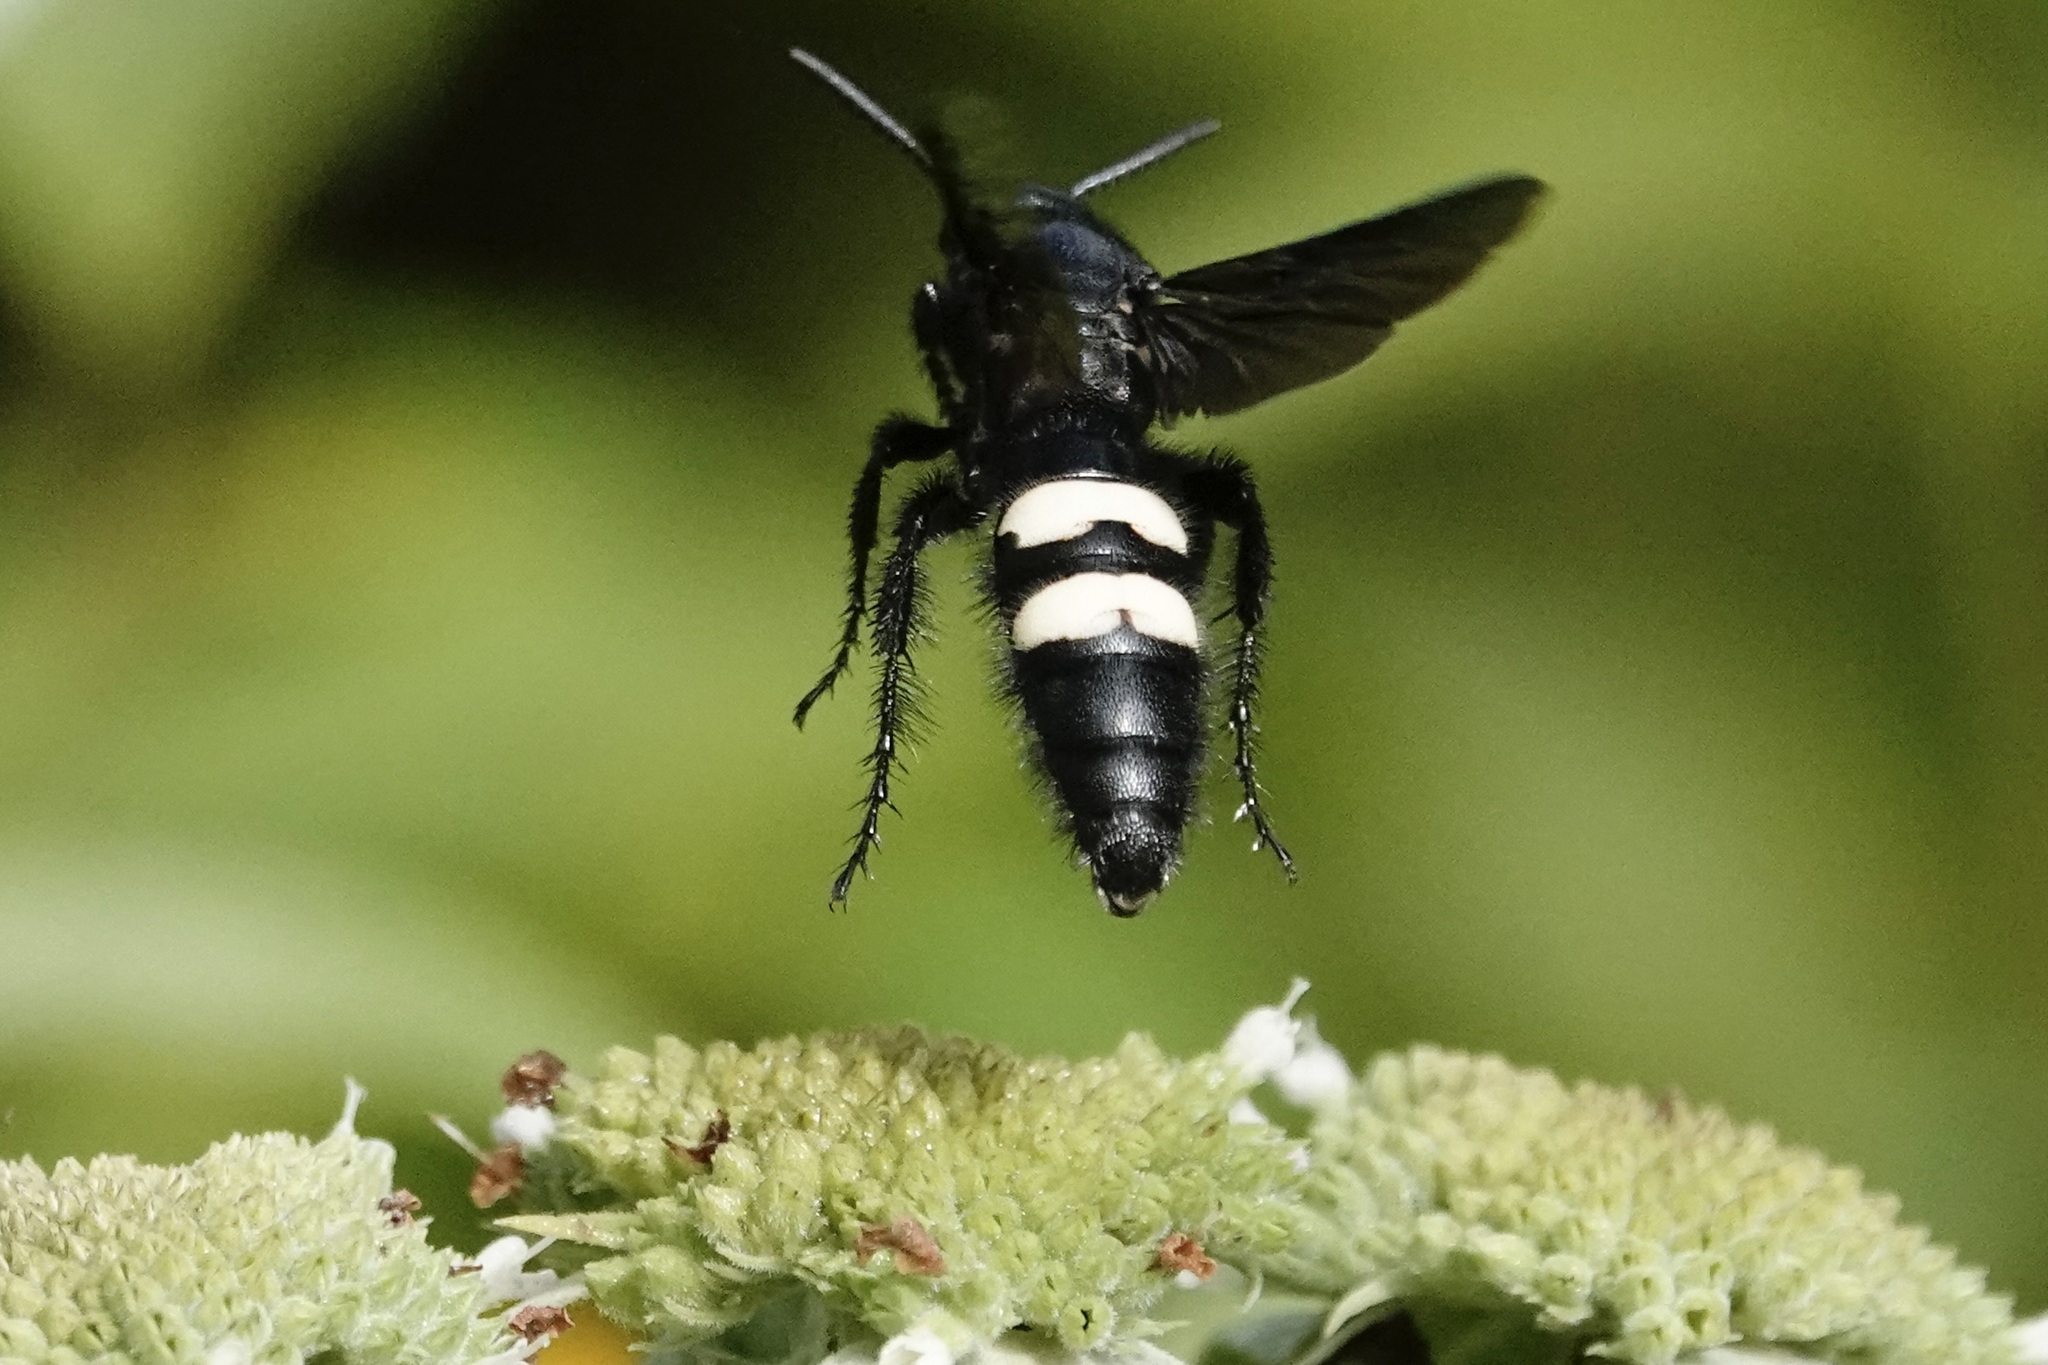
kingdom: Animalia
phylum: Arthropoda
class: Insecta
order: Hymenoptera
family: Scoliidae
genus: Scolia
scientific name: Scolia bicincta
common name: Double-banded scoliid wasp
